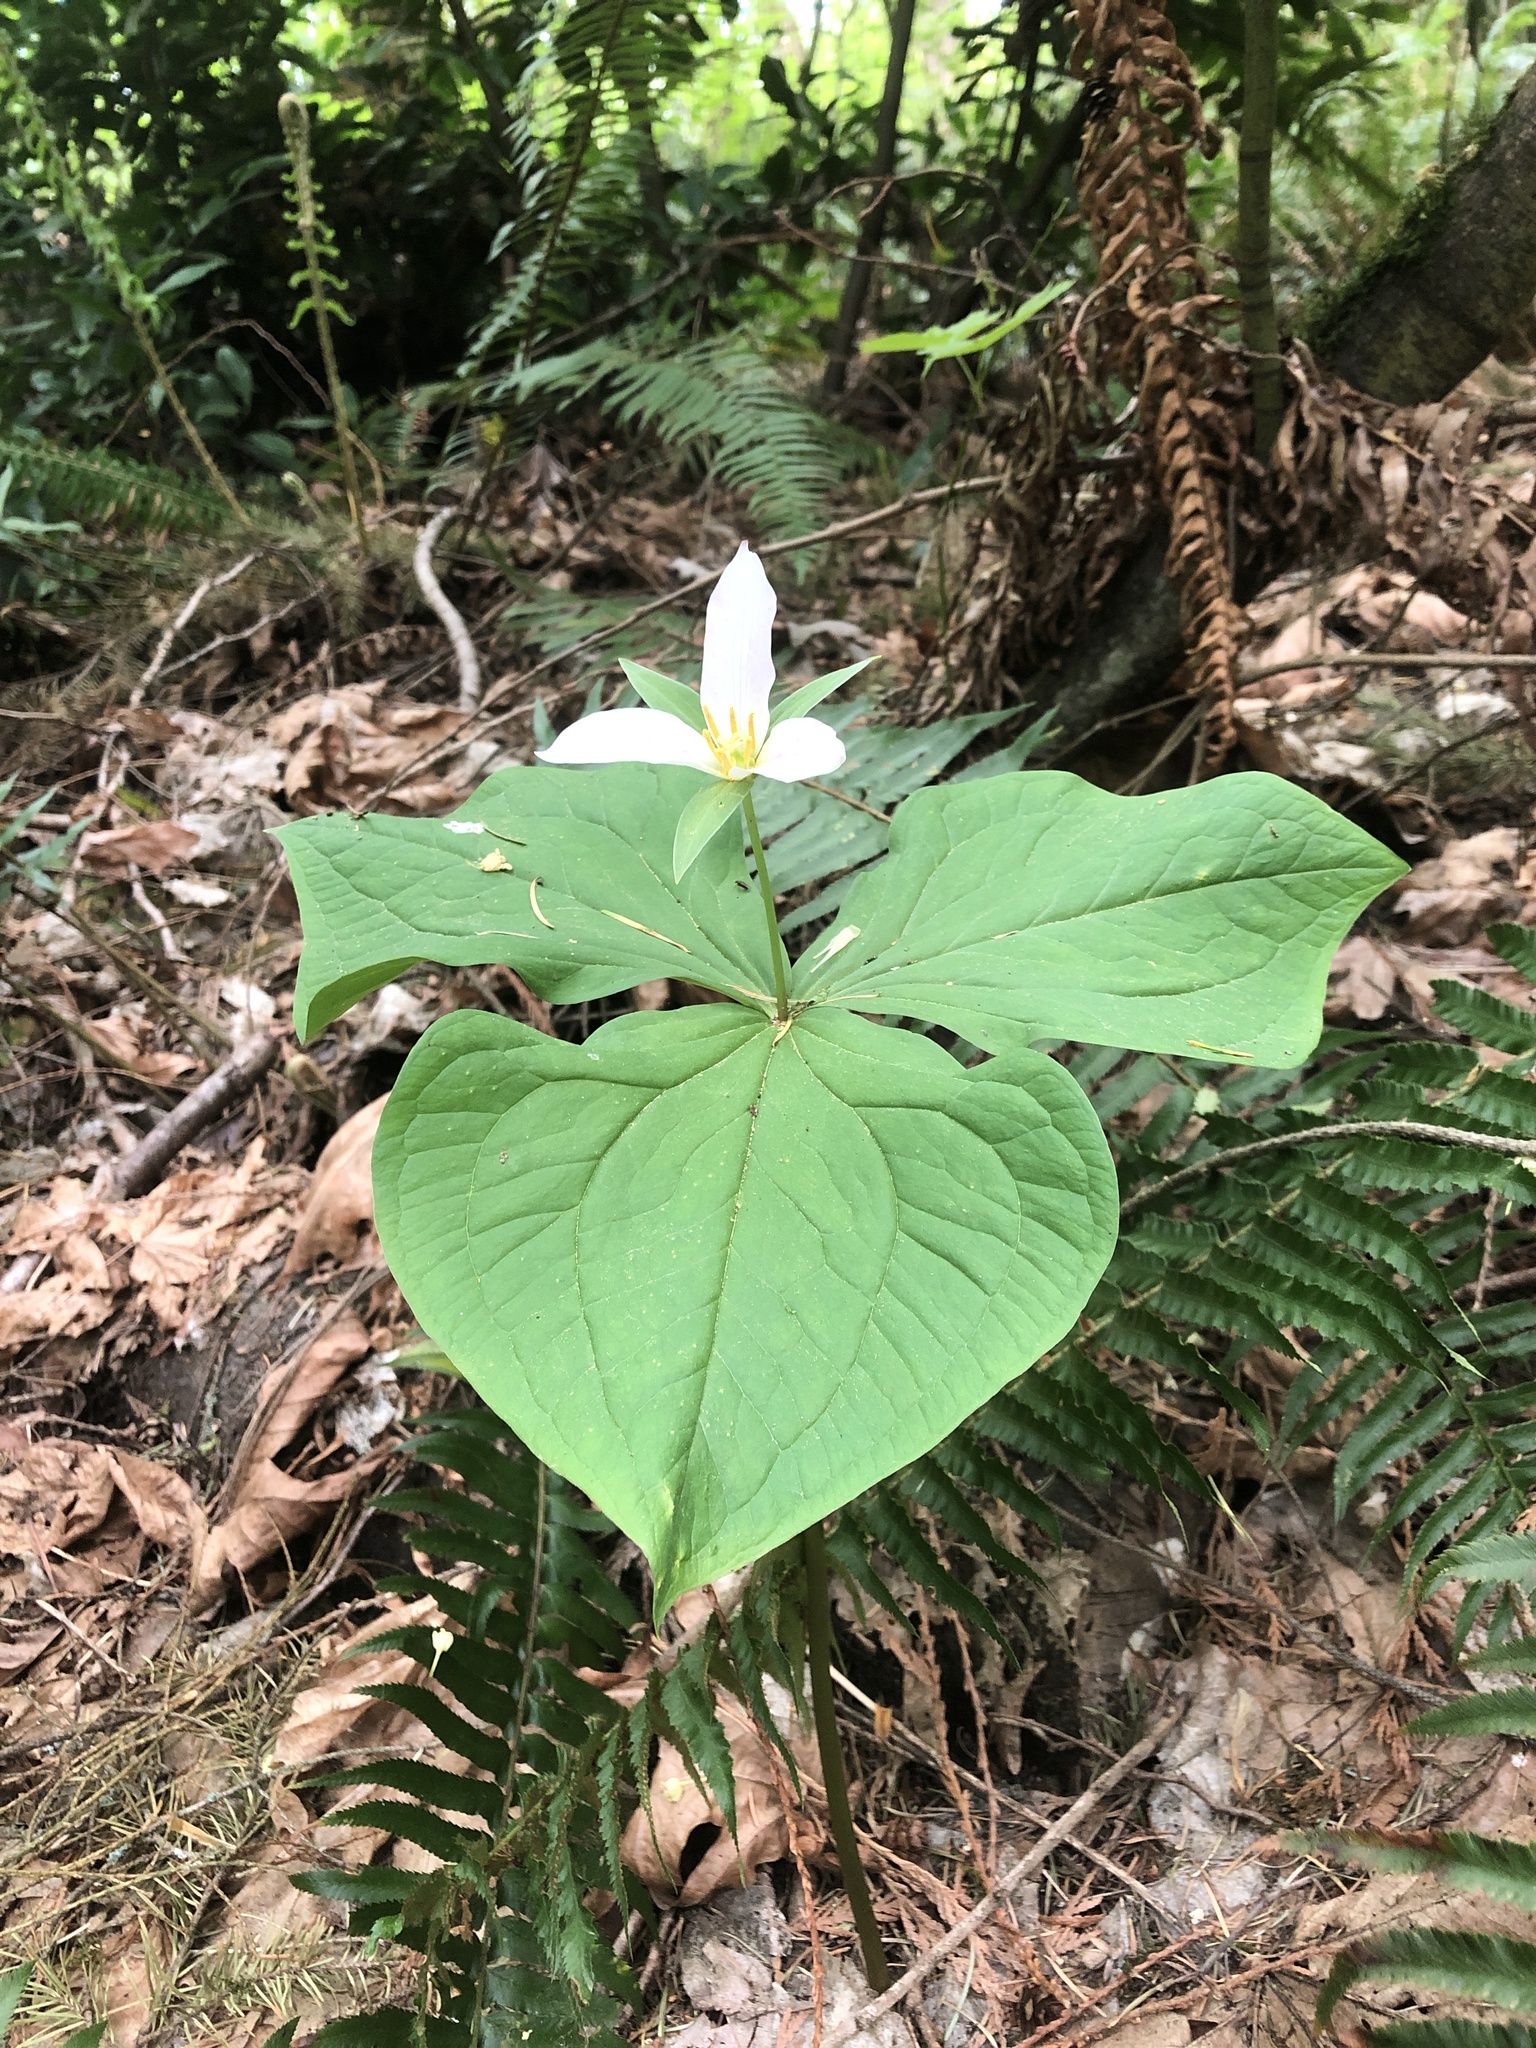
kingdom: Plantae
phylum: Tracheophyta
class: Liliopsida
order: Liliales
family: Melanthiaceae
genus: Trillium
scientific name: Trillium ovatum
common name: Pacific trillium
